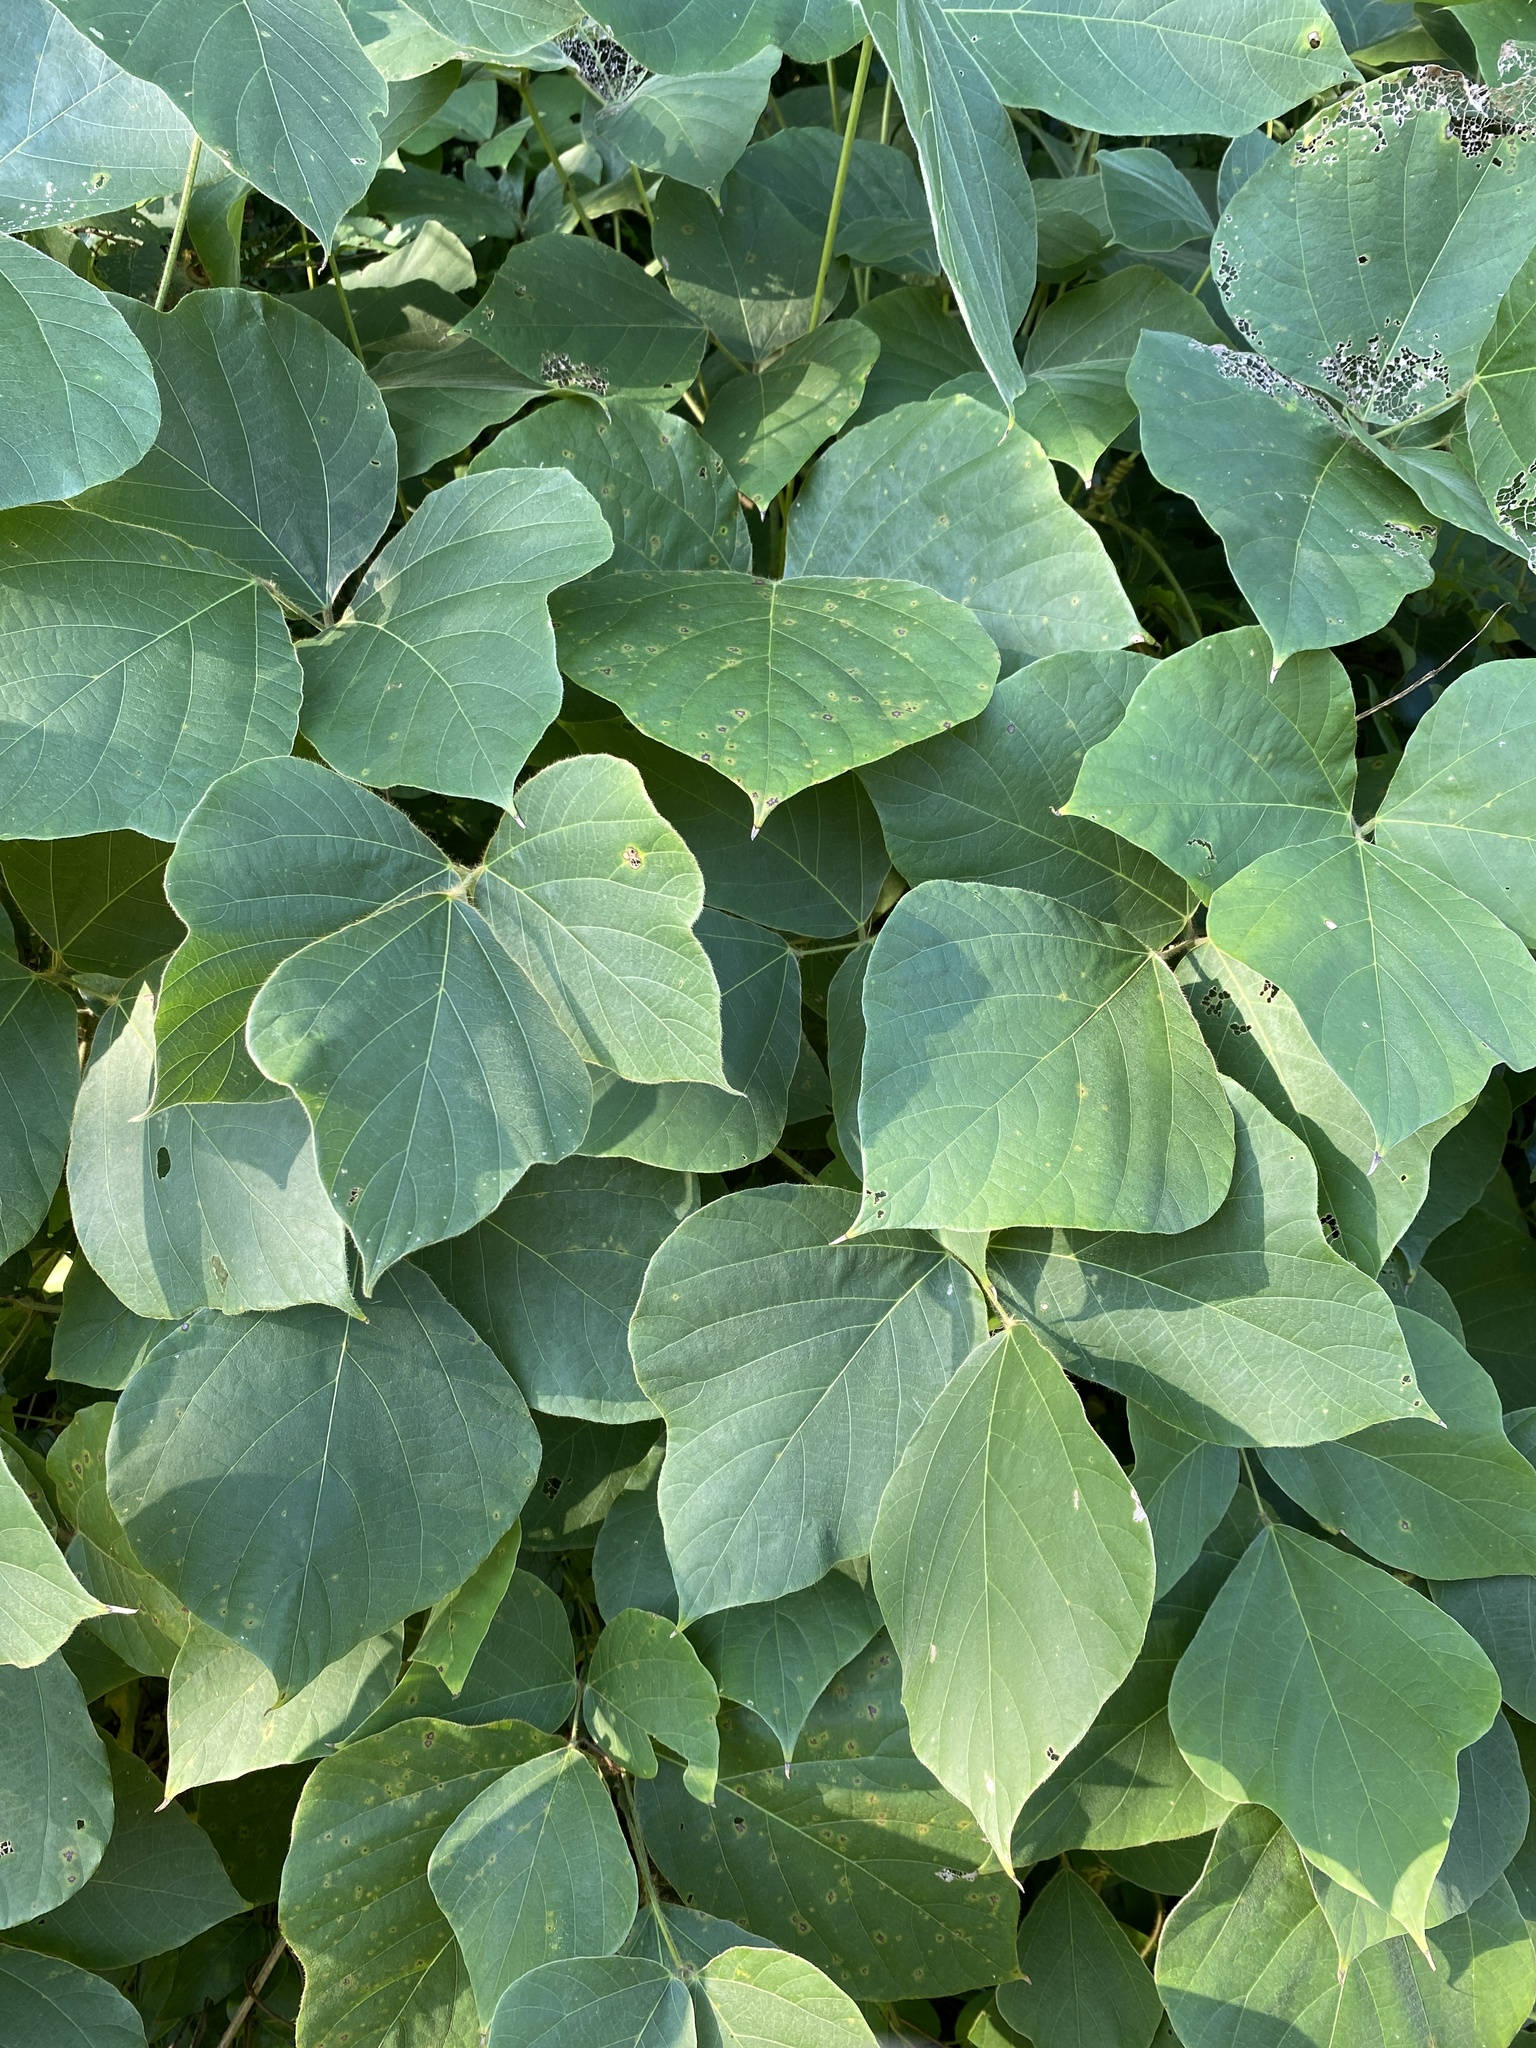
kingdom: Plantae
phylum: Tracheophyta
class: Magnoliopsida
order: Fabales
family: Fabaceae
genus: Pueraria
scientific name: Pueraria montana
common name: Kudzu
